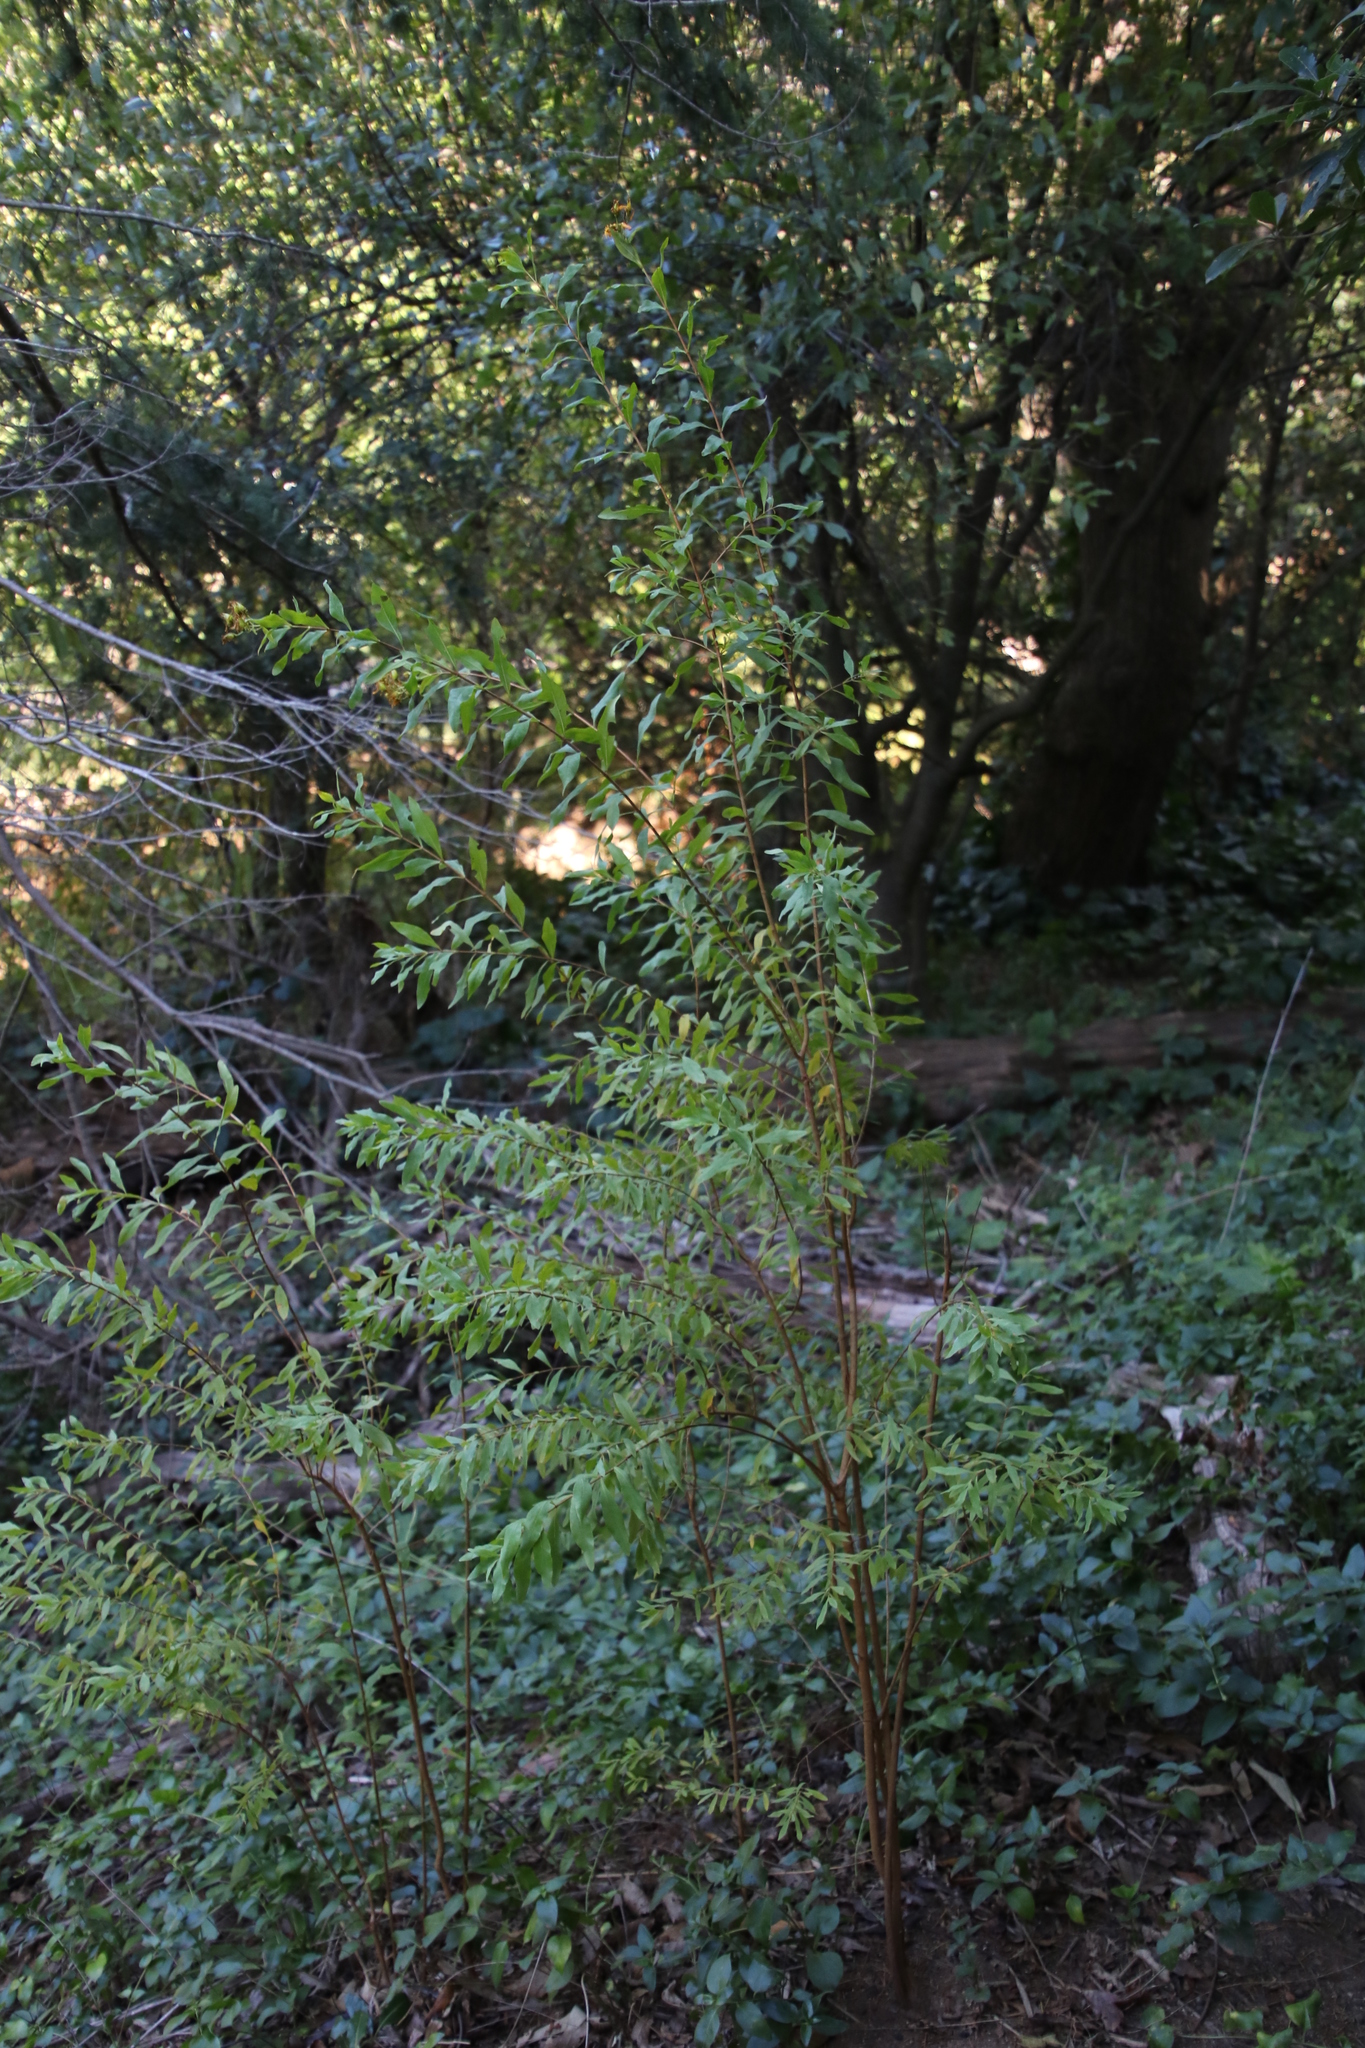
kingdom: Plantae
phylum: Tracheophyta
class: Magnoliopsida
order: Malpighiales
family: Hypericaceae
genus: Hypericum
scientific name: Hypericum canariense
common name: Canary island st. johnswort
